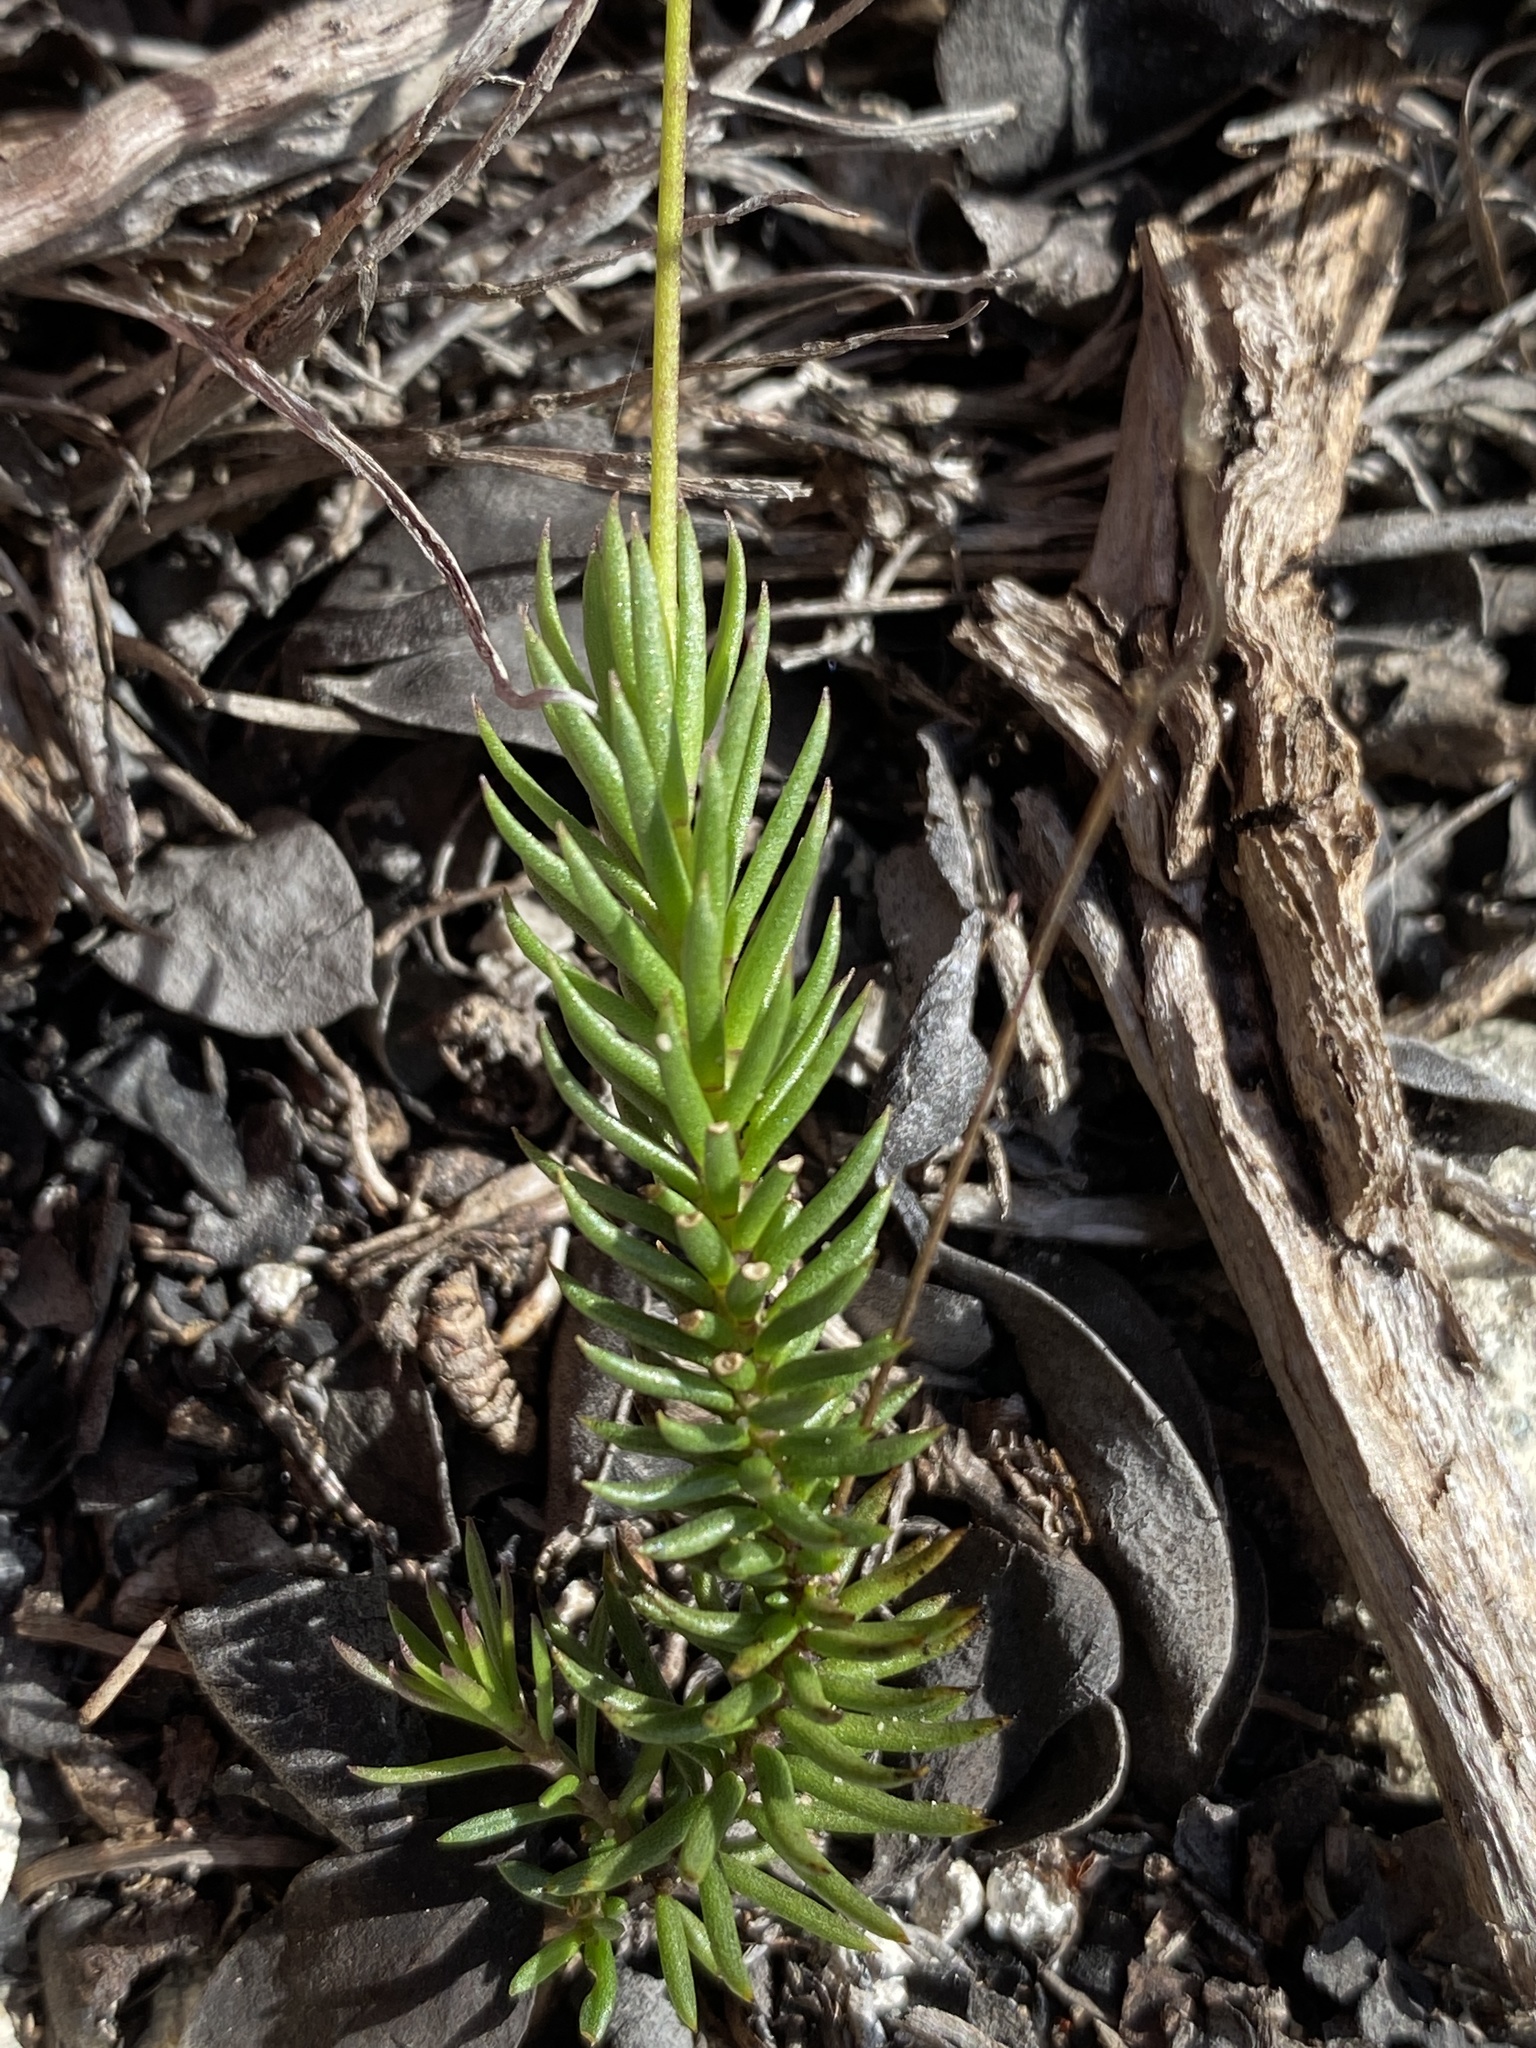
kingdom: Plantae
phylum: Tracheophyta
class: Magnoliopsida
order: Brassicales
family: Brassicaceae
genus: Heliophila
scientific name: Heliophila subulata
